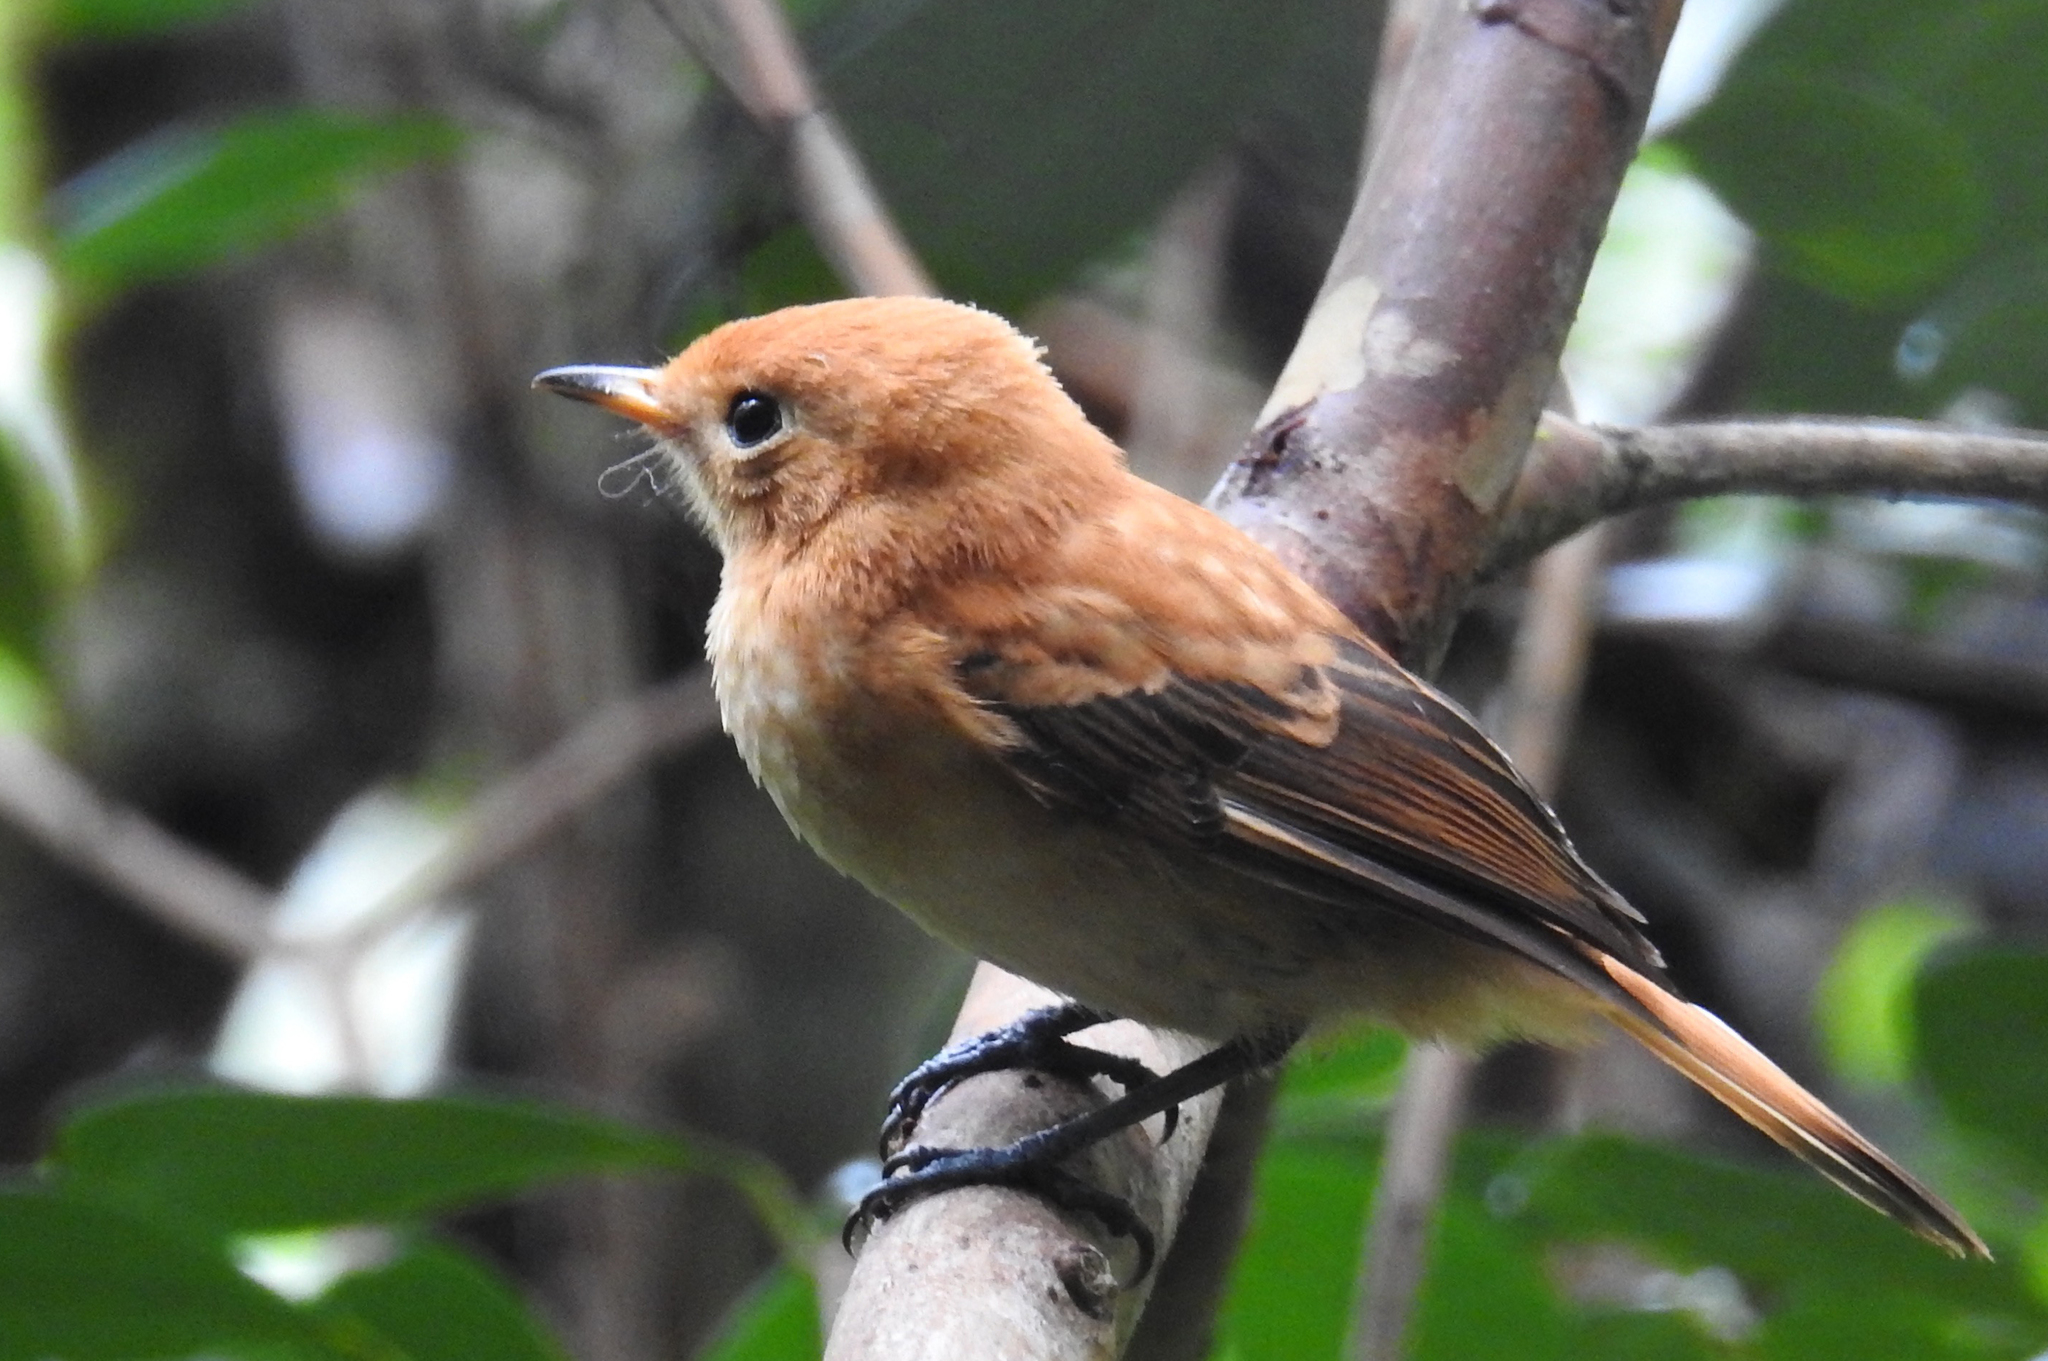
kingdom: Animalia
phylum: Chordata
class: Aves
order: Passeriformes
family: Monarchidae
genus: Pomarea
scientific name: Pomarea dimidiata
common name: Rarotonga monarch
